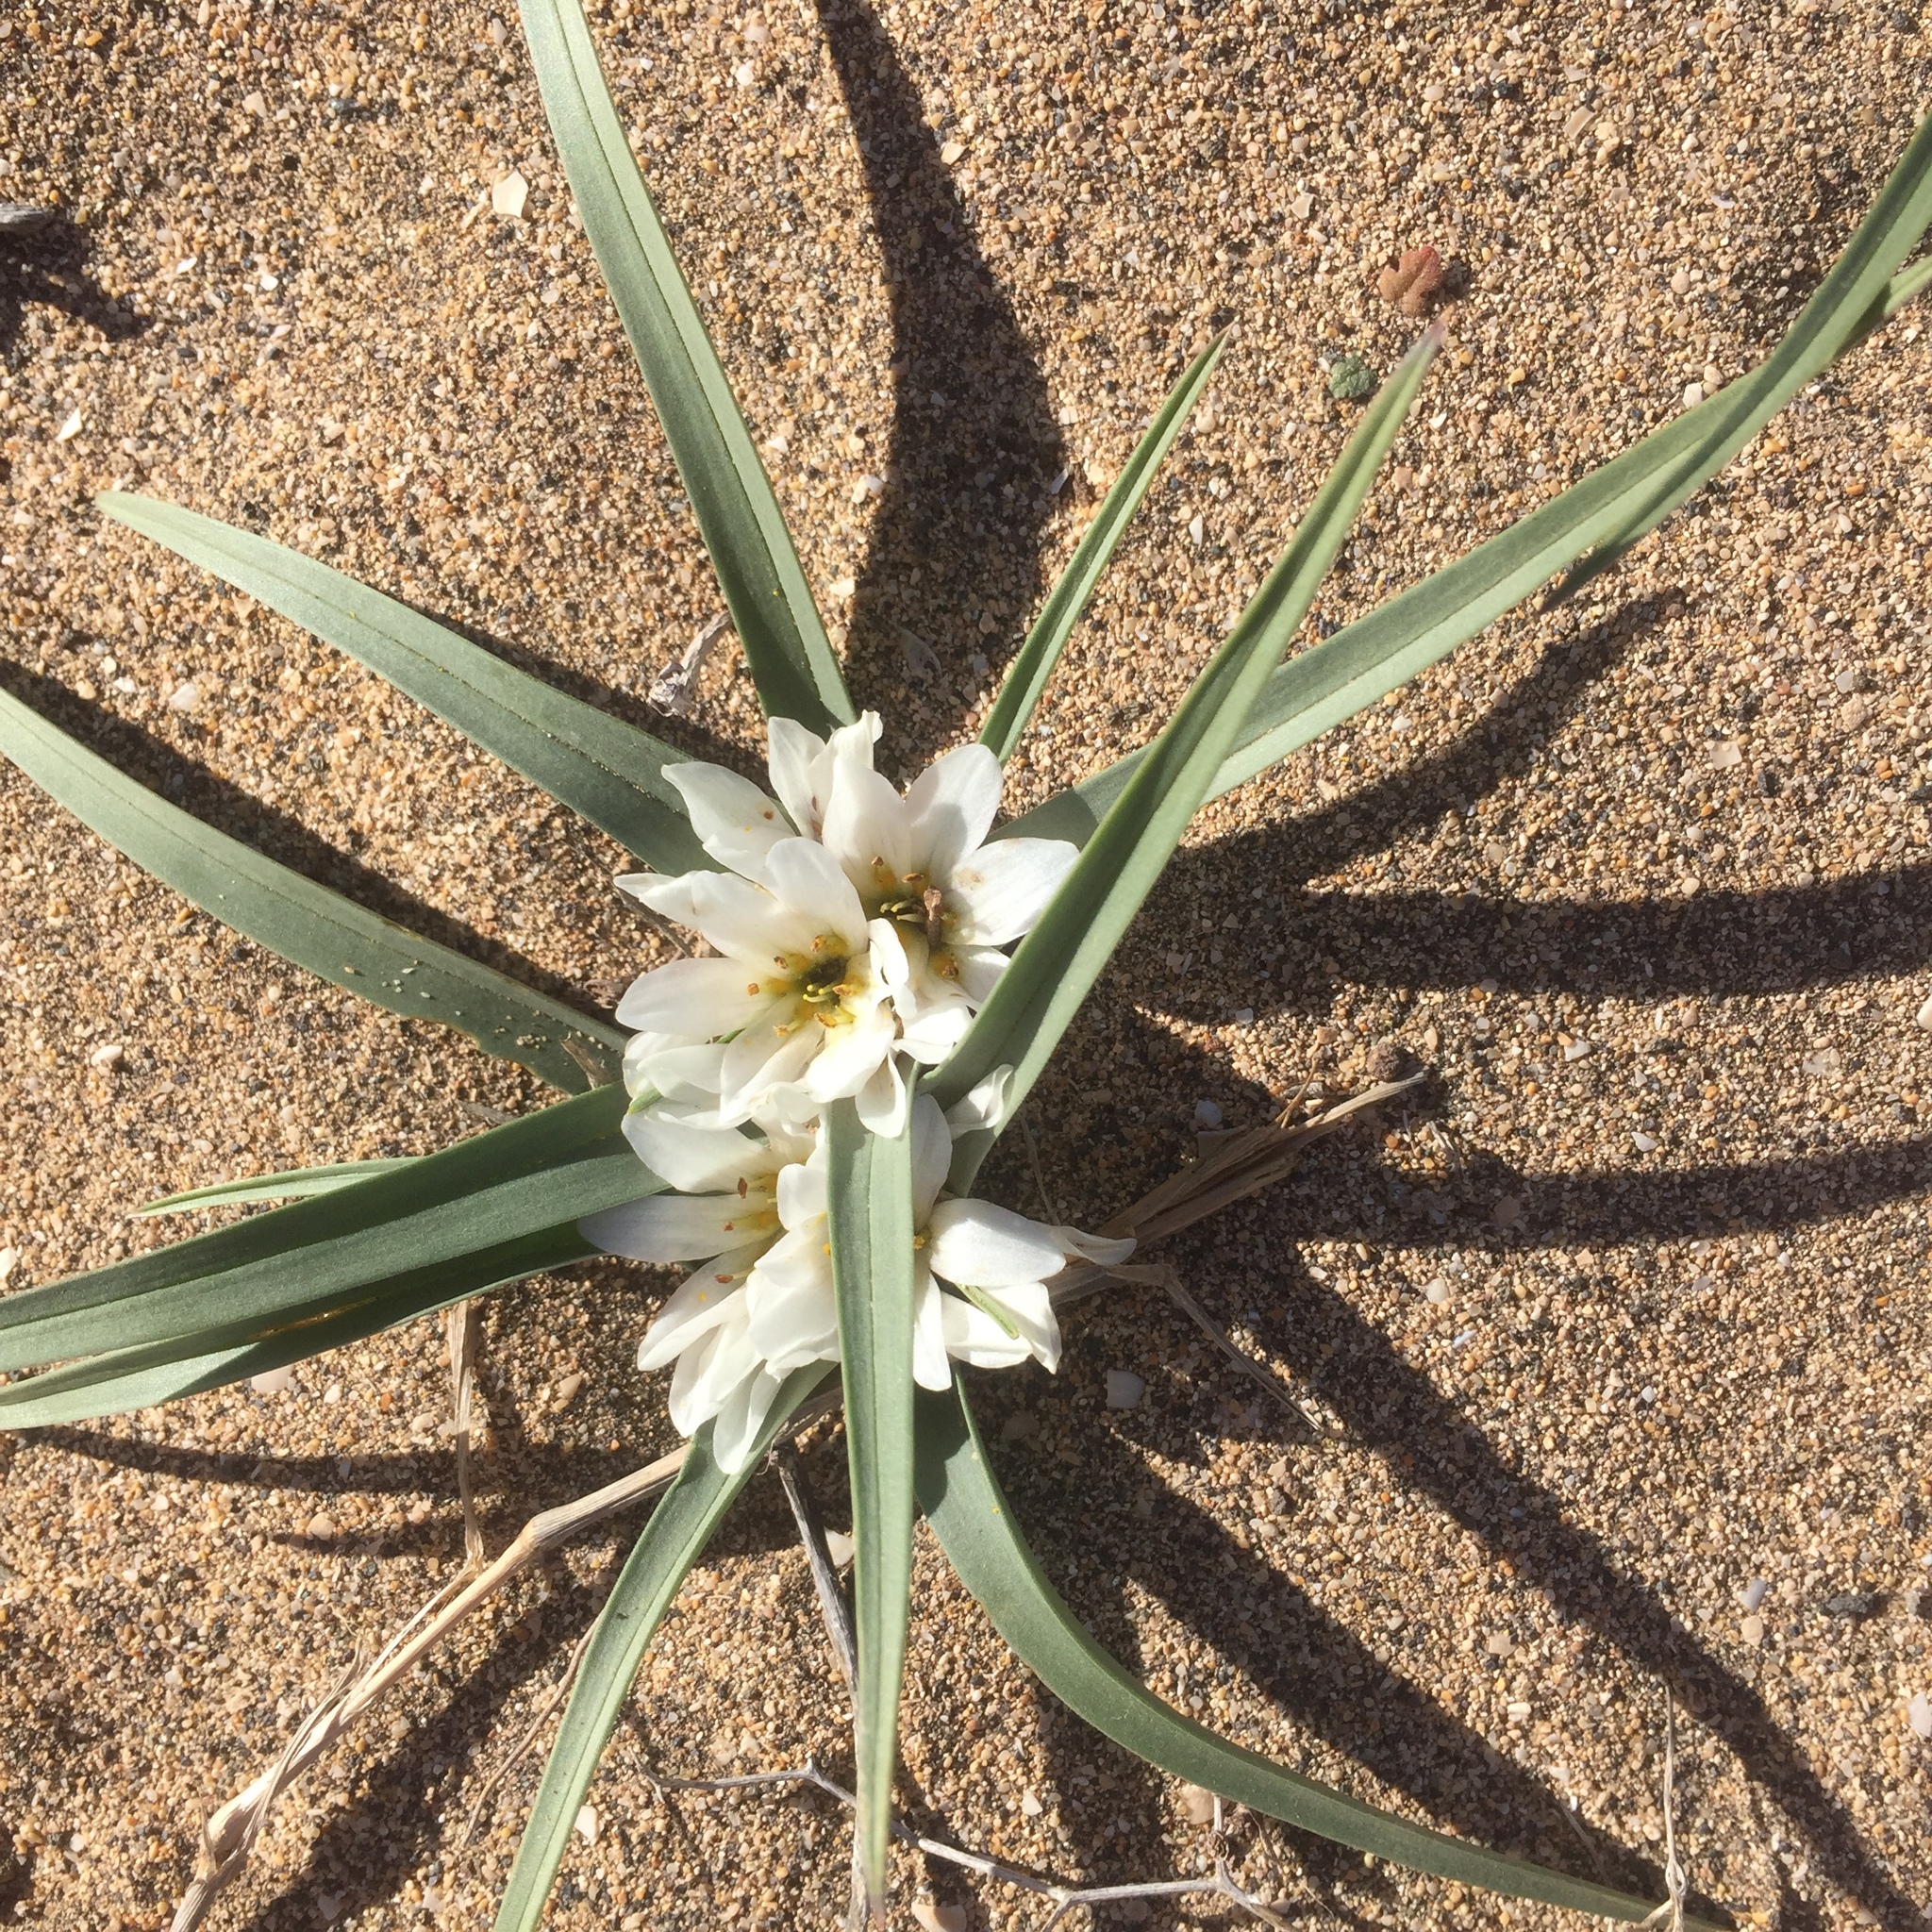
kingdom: Plantae
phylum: Tracheophyta
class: Liliopsida
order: Liliales
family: Colchicaceae
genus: Colchicum
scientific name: Colchicum psammophilum
